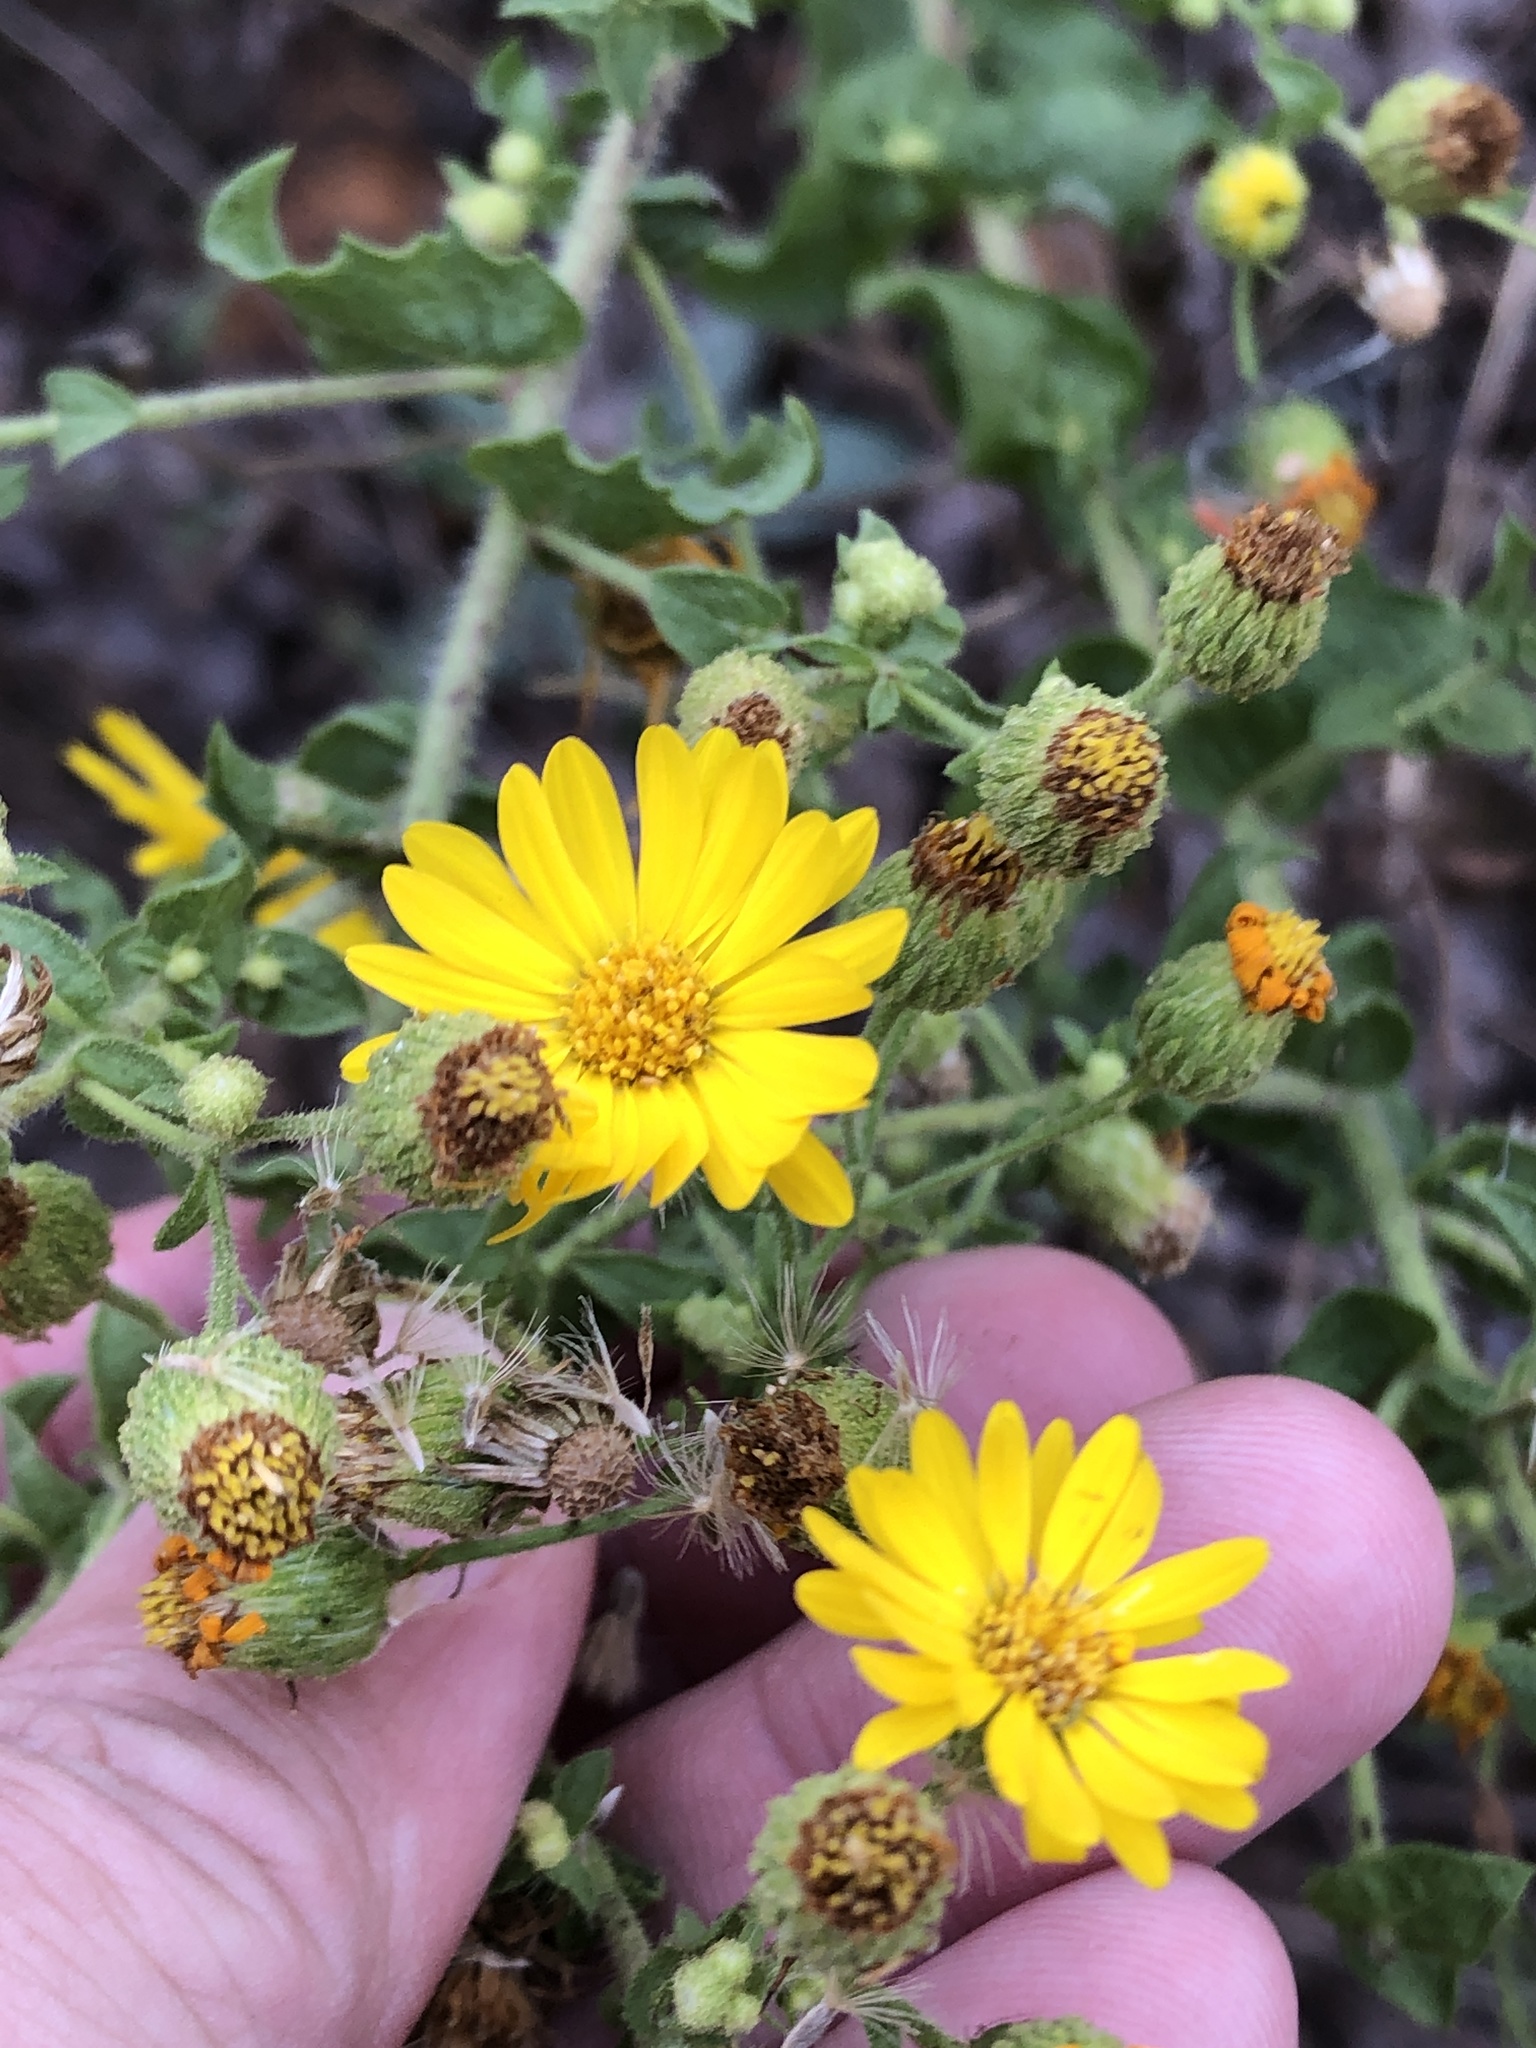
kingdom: Plantae
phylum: Tracheophyta
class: Magnoliopsida
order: Asterales
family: Asteraceae
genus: Heterotheca
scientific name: Heterotheca subaxillaris
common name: Camphorweed
